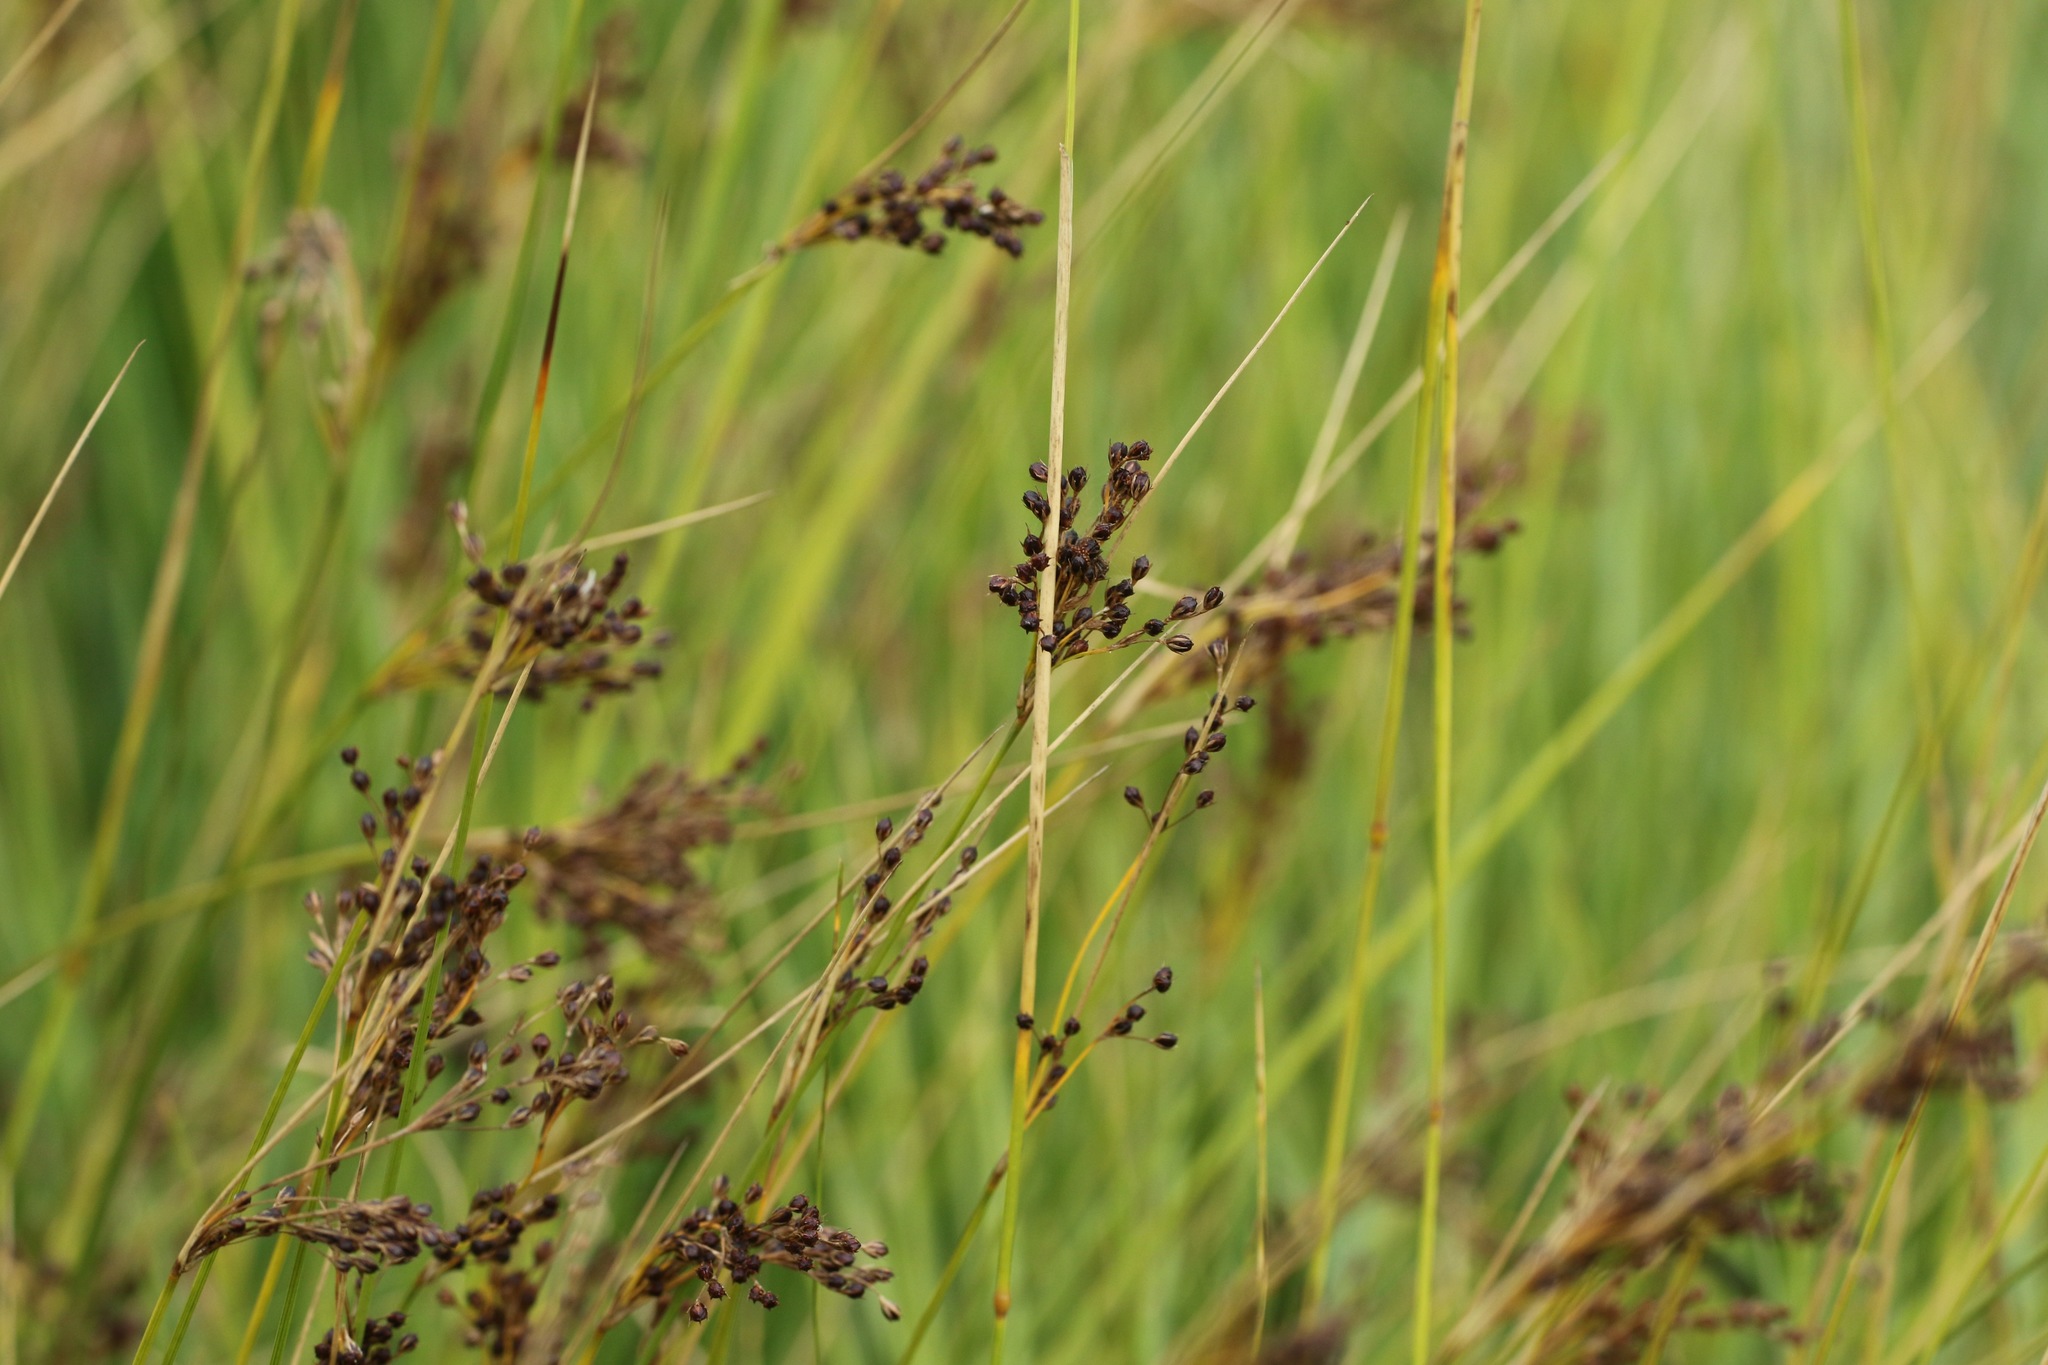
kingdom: Plantae
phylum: Tracheophyta
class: Liliopsida
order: Poales
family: Juncaceae
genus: Juncus
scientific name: Juncus inflexus
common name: Hard rush
